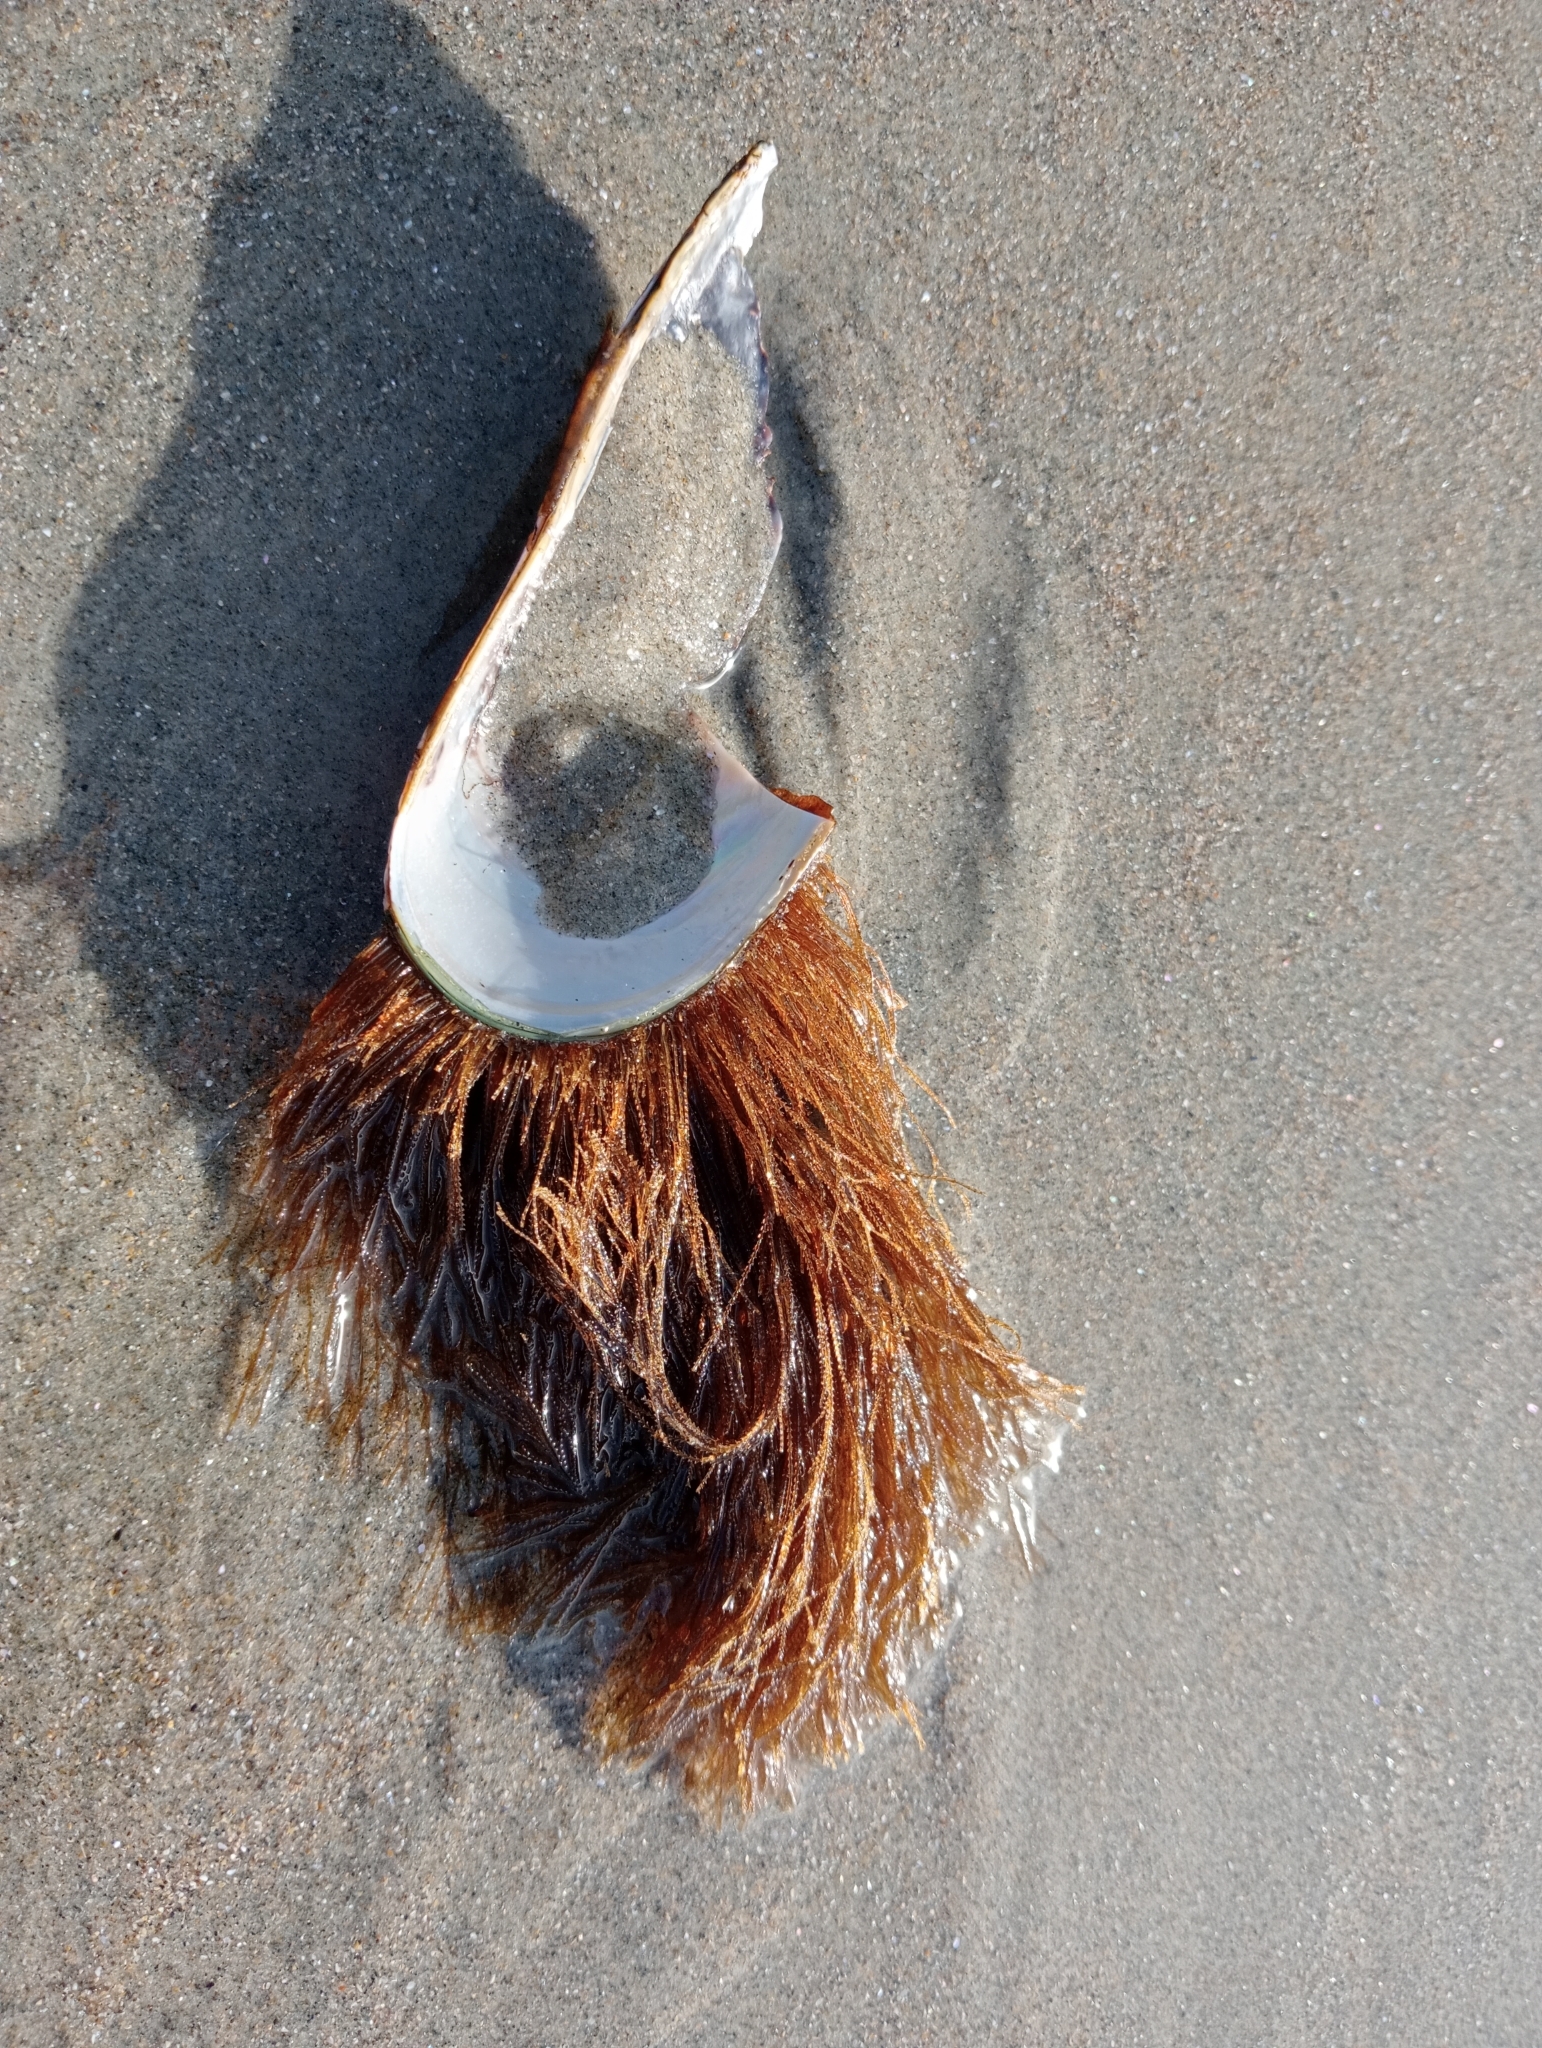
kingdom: Animalia
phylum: Cnidaria
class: Hydrozoa
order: Leptothecata
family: Sertulariidae
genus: Amphisbetia
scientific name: Amphisbetia bispinosa
